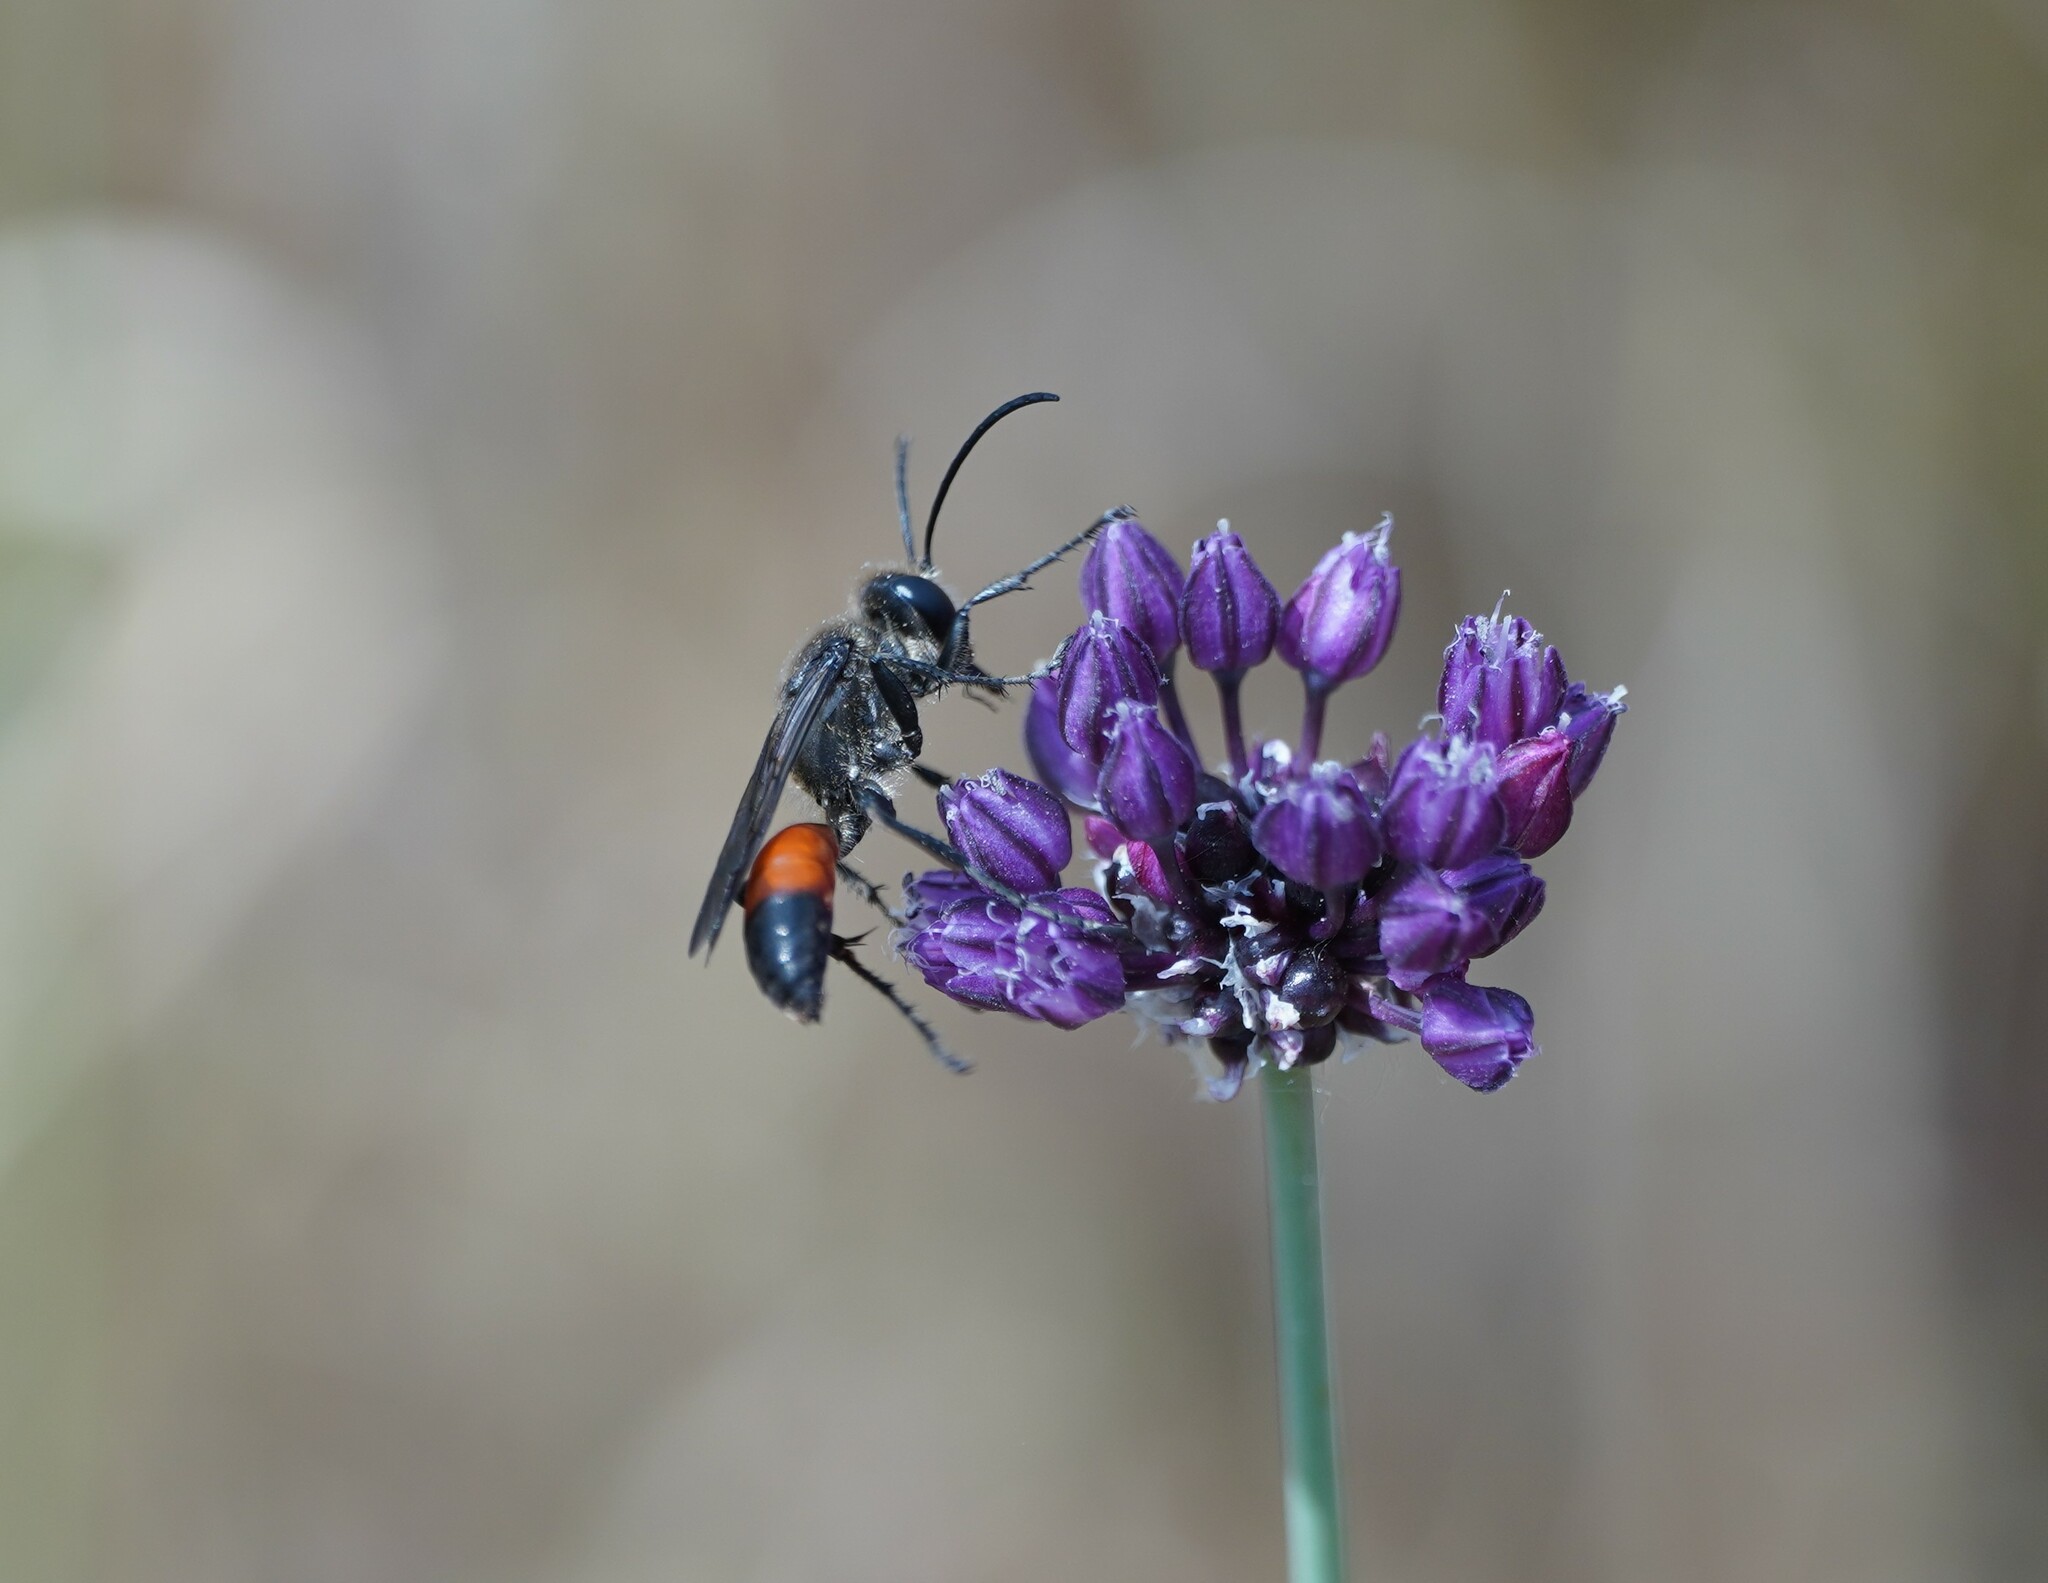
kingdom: Animalia
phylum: Arthropoda
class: Insecta
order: Hymenoptera
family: Sphecidae
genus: Sphex
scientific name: Sphex funerarius
